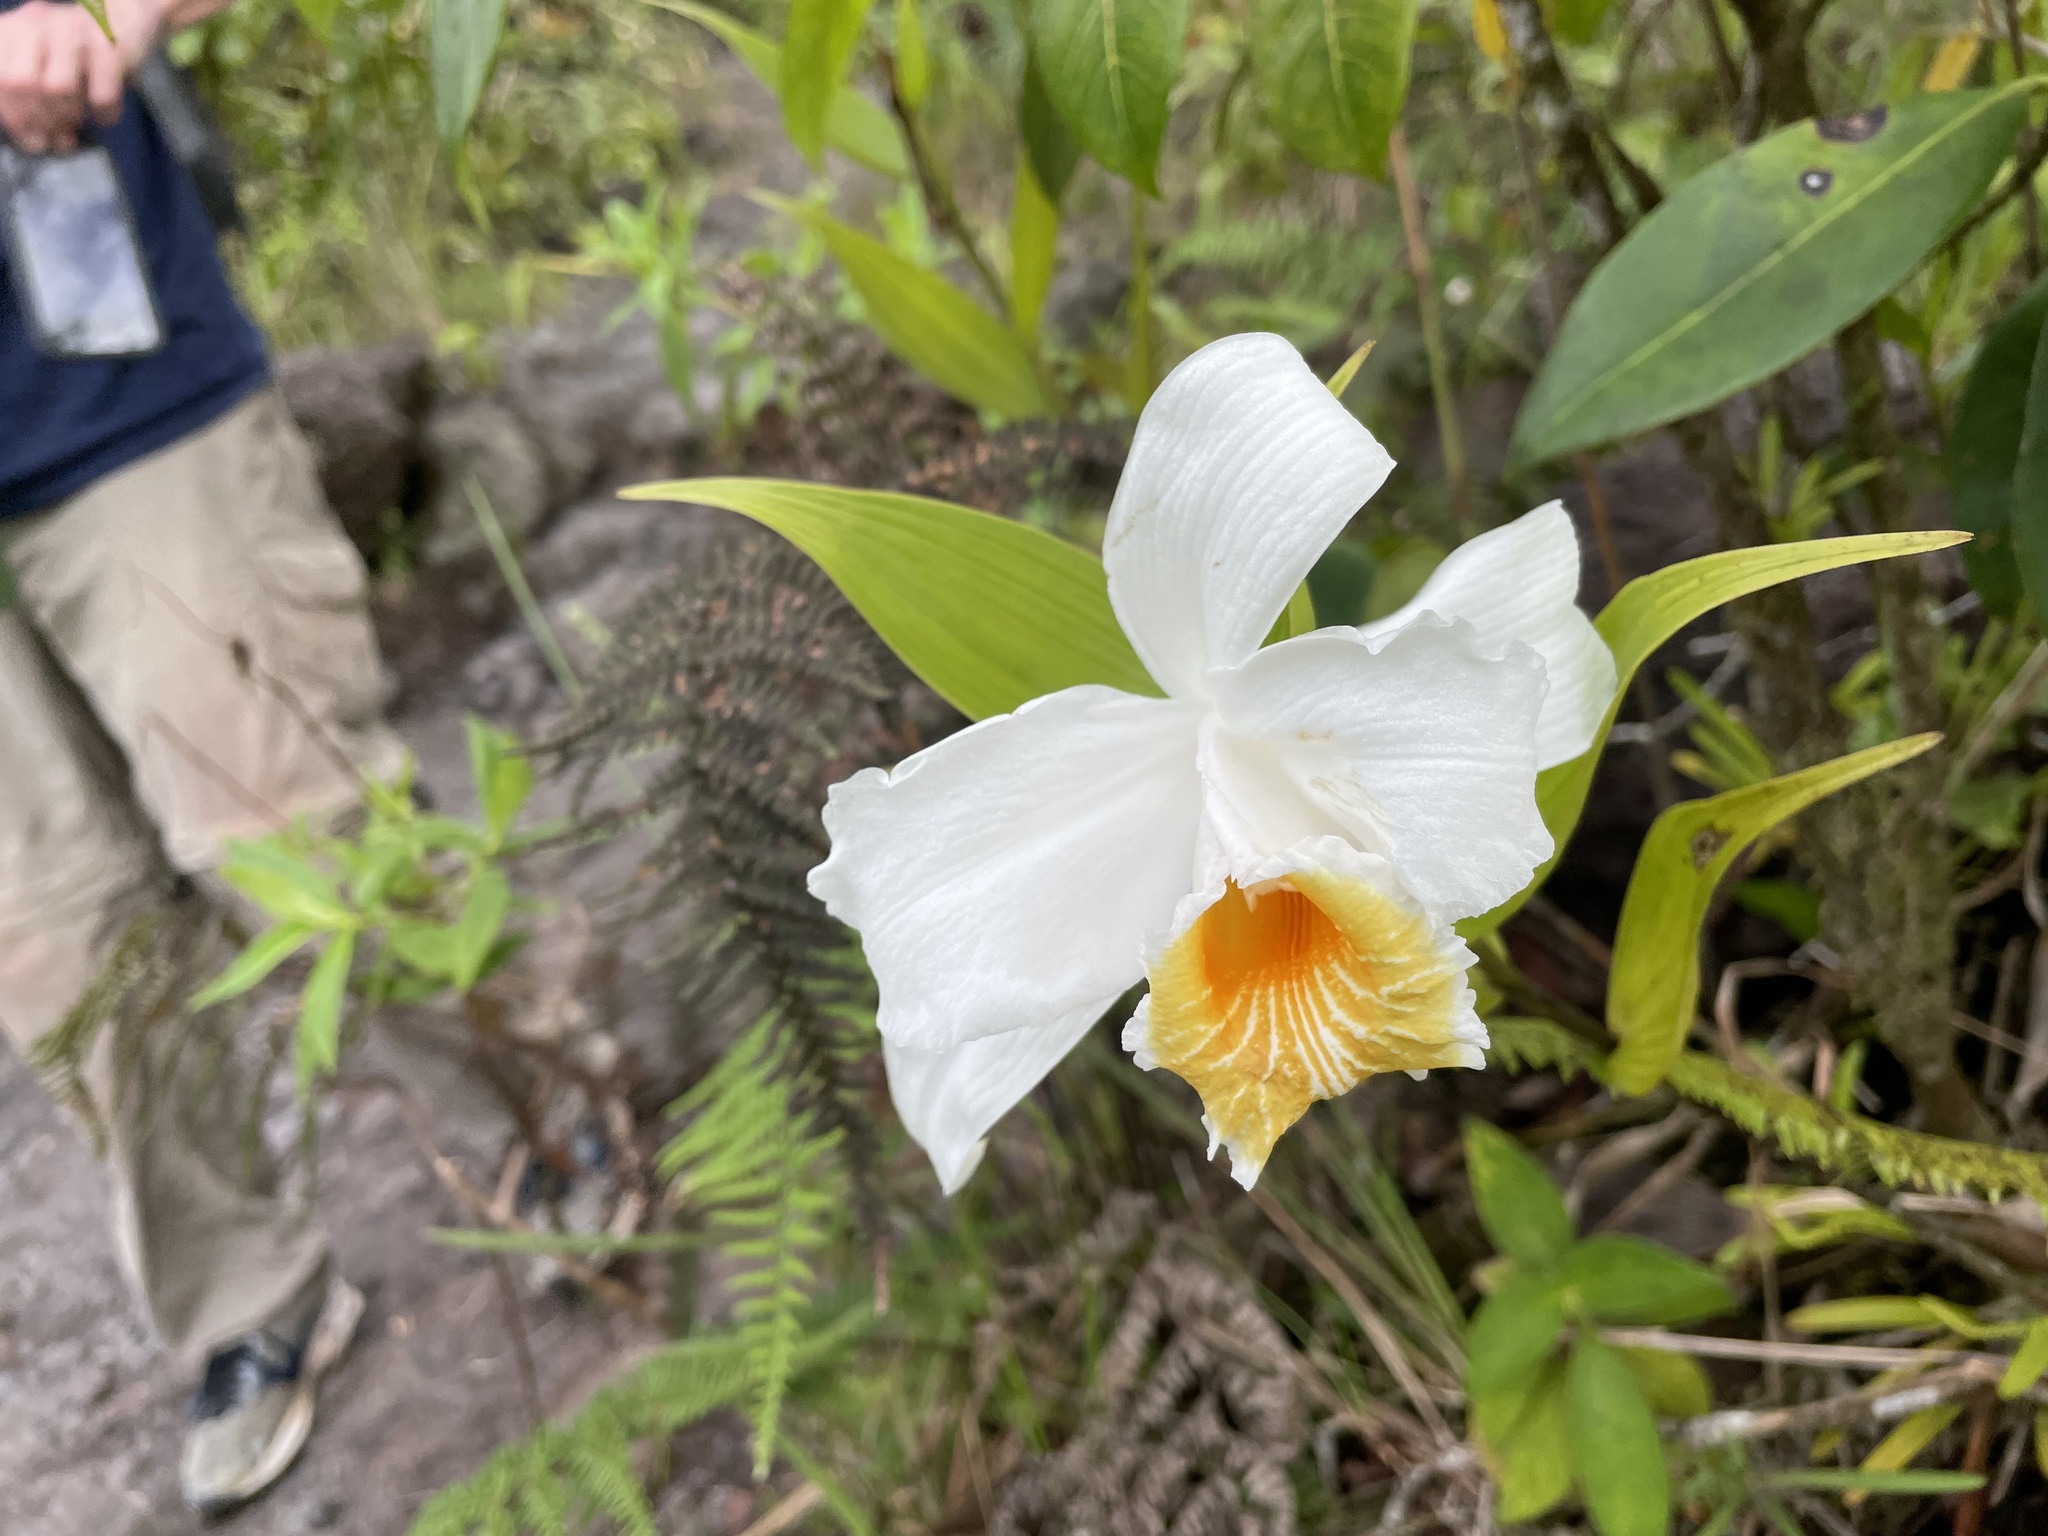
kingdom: Plantae
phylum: Tracheophyta
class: Liliopsida
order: Asparagales
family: Orchidaceae
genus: Sobralia
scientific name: Sobralia chrysostoma
